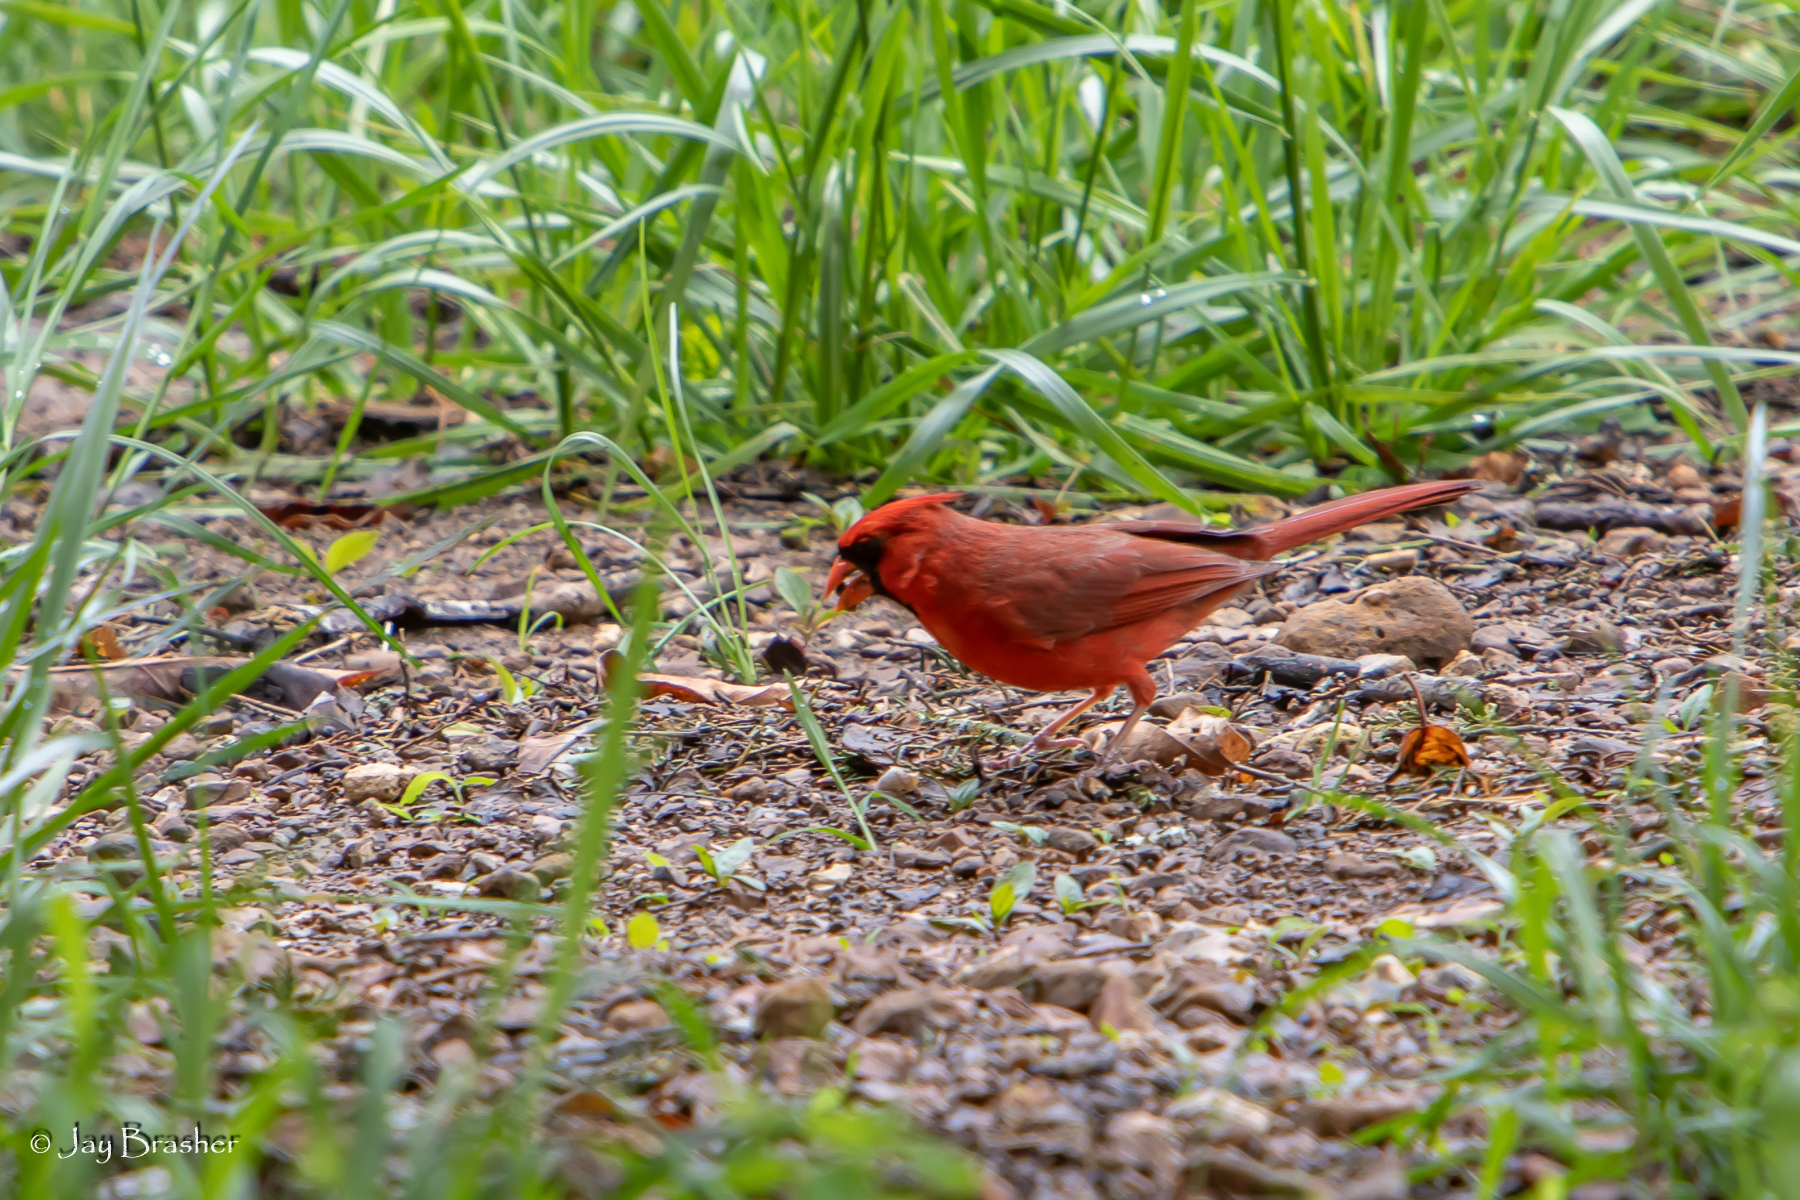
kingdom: Animalia
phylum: Chordata
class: Aves
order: Passeriformes
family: Cardinalidae
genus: Cardinalis
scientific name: Cardinalis cardinalis
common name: Northern cardinal
